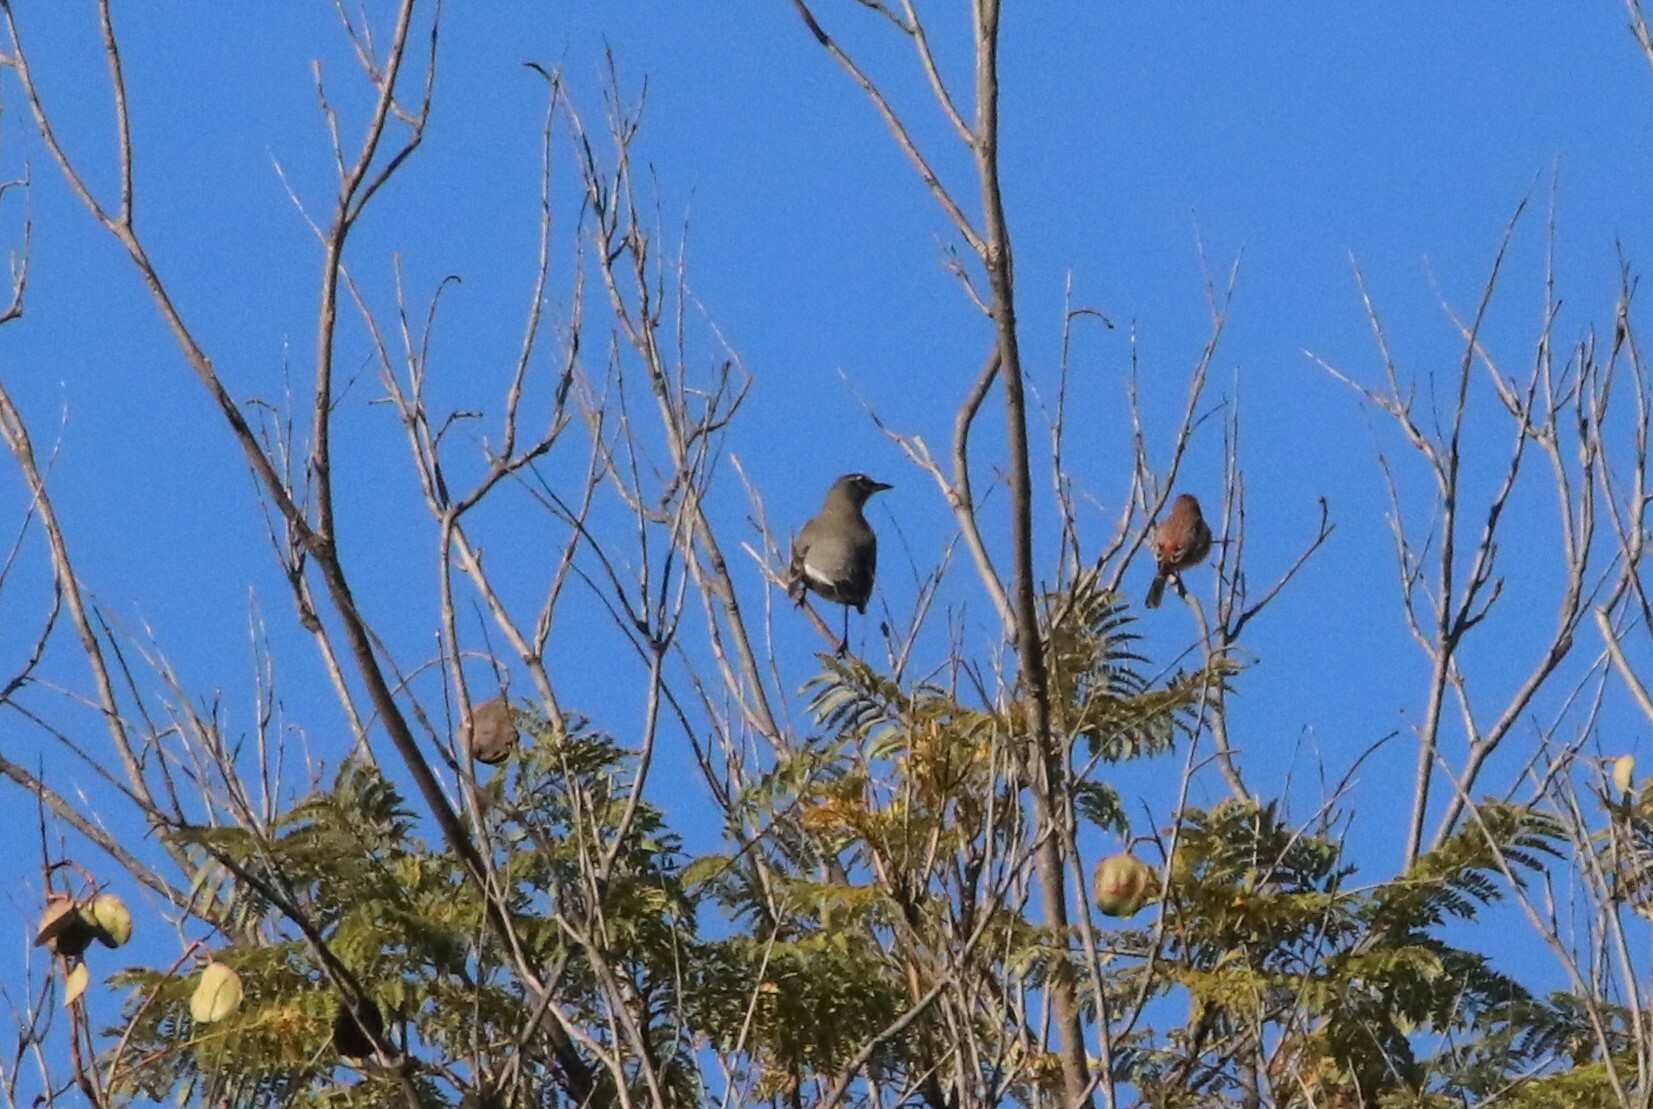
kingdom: Animalia
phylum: Chordata
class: Aves
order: Passeriformes
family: Turdidae
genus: Turdus
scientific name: Turdus migratorius
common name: American robin
